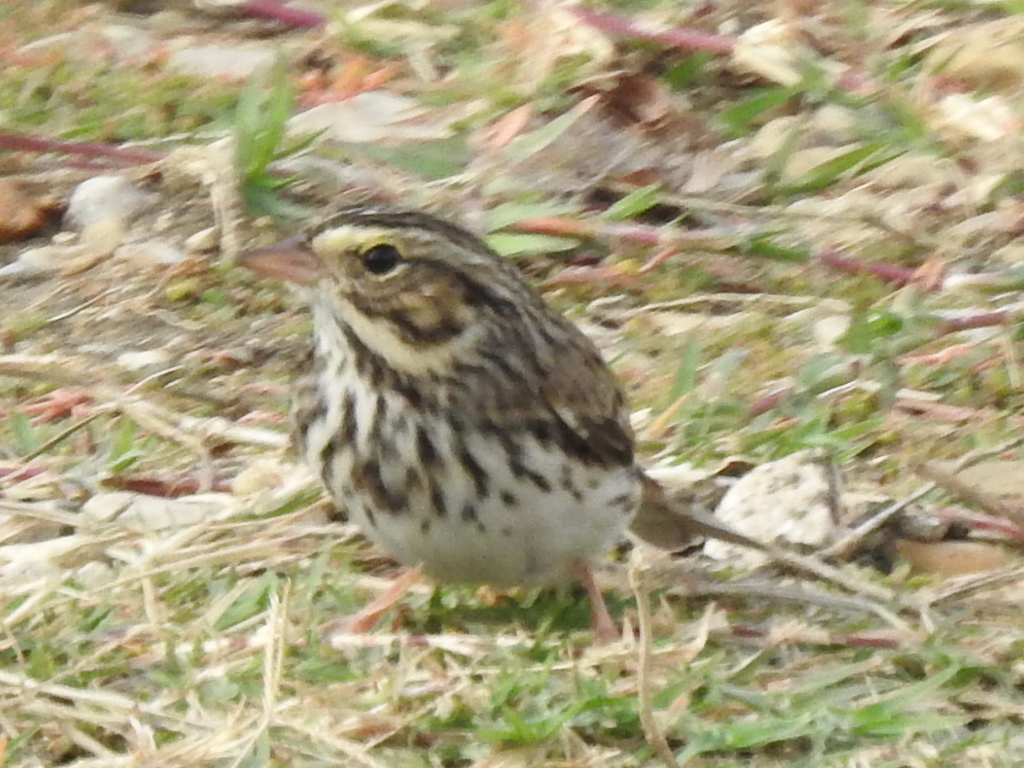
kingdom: Animalia
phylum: Chordata
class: Aves
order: Passeriformes
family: Passerellidae
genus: Passerculus
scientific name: Passerculus sandwichensis
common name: Savannah sparrow
